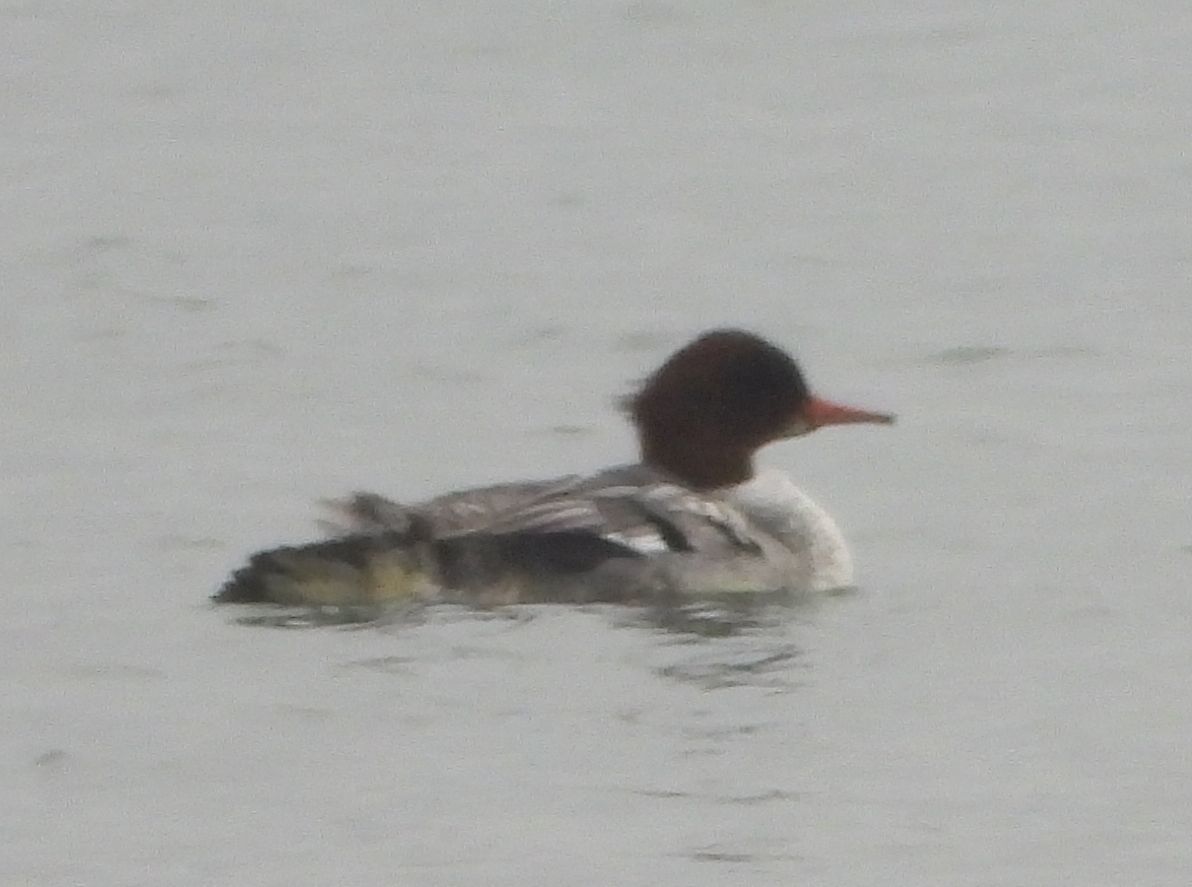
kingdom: Animalia
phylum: Chordata
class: Aves
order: Anseriformes
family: Anatidae
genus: Mergus
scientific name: Mergus merganser
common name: Common merganser
